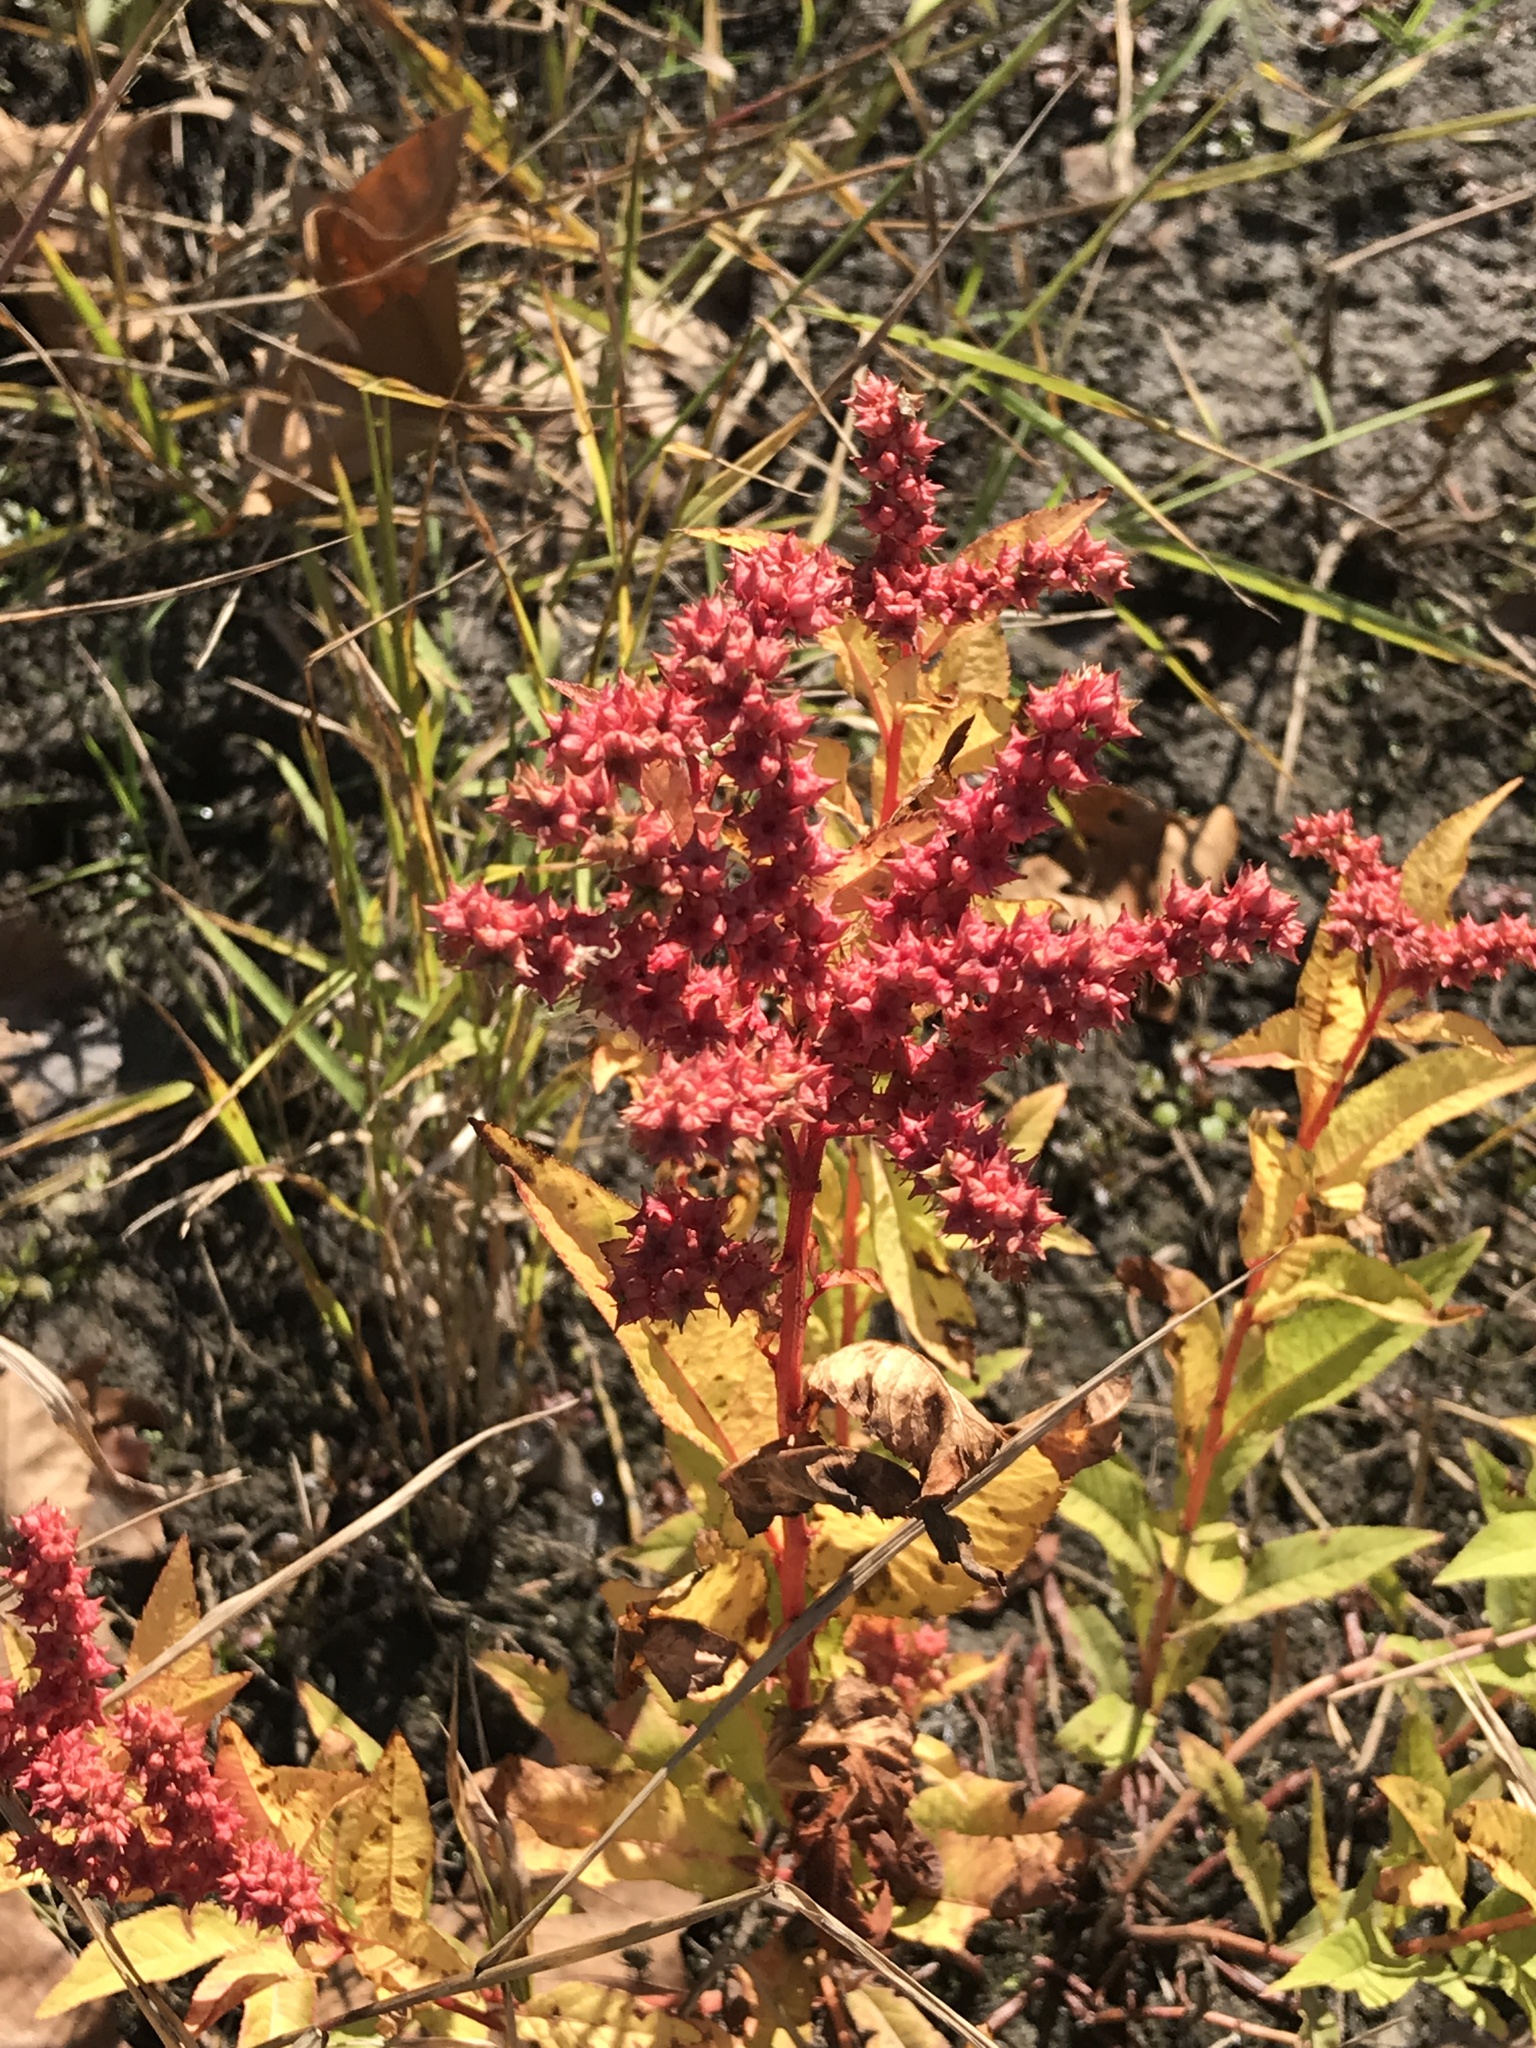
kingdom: Plantae
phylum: Tracheophyta
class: Magnoliopsida
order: Saxifragales
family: Penthoraceae
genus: Penthorum
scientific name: Penthorum sedoides
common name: Ditch stonecrop
